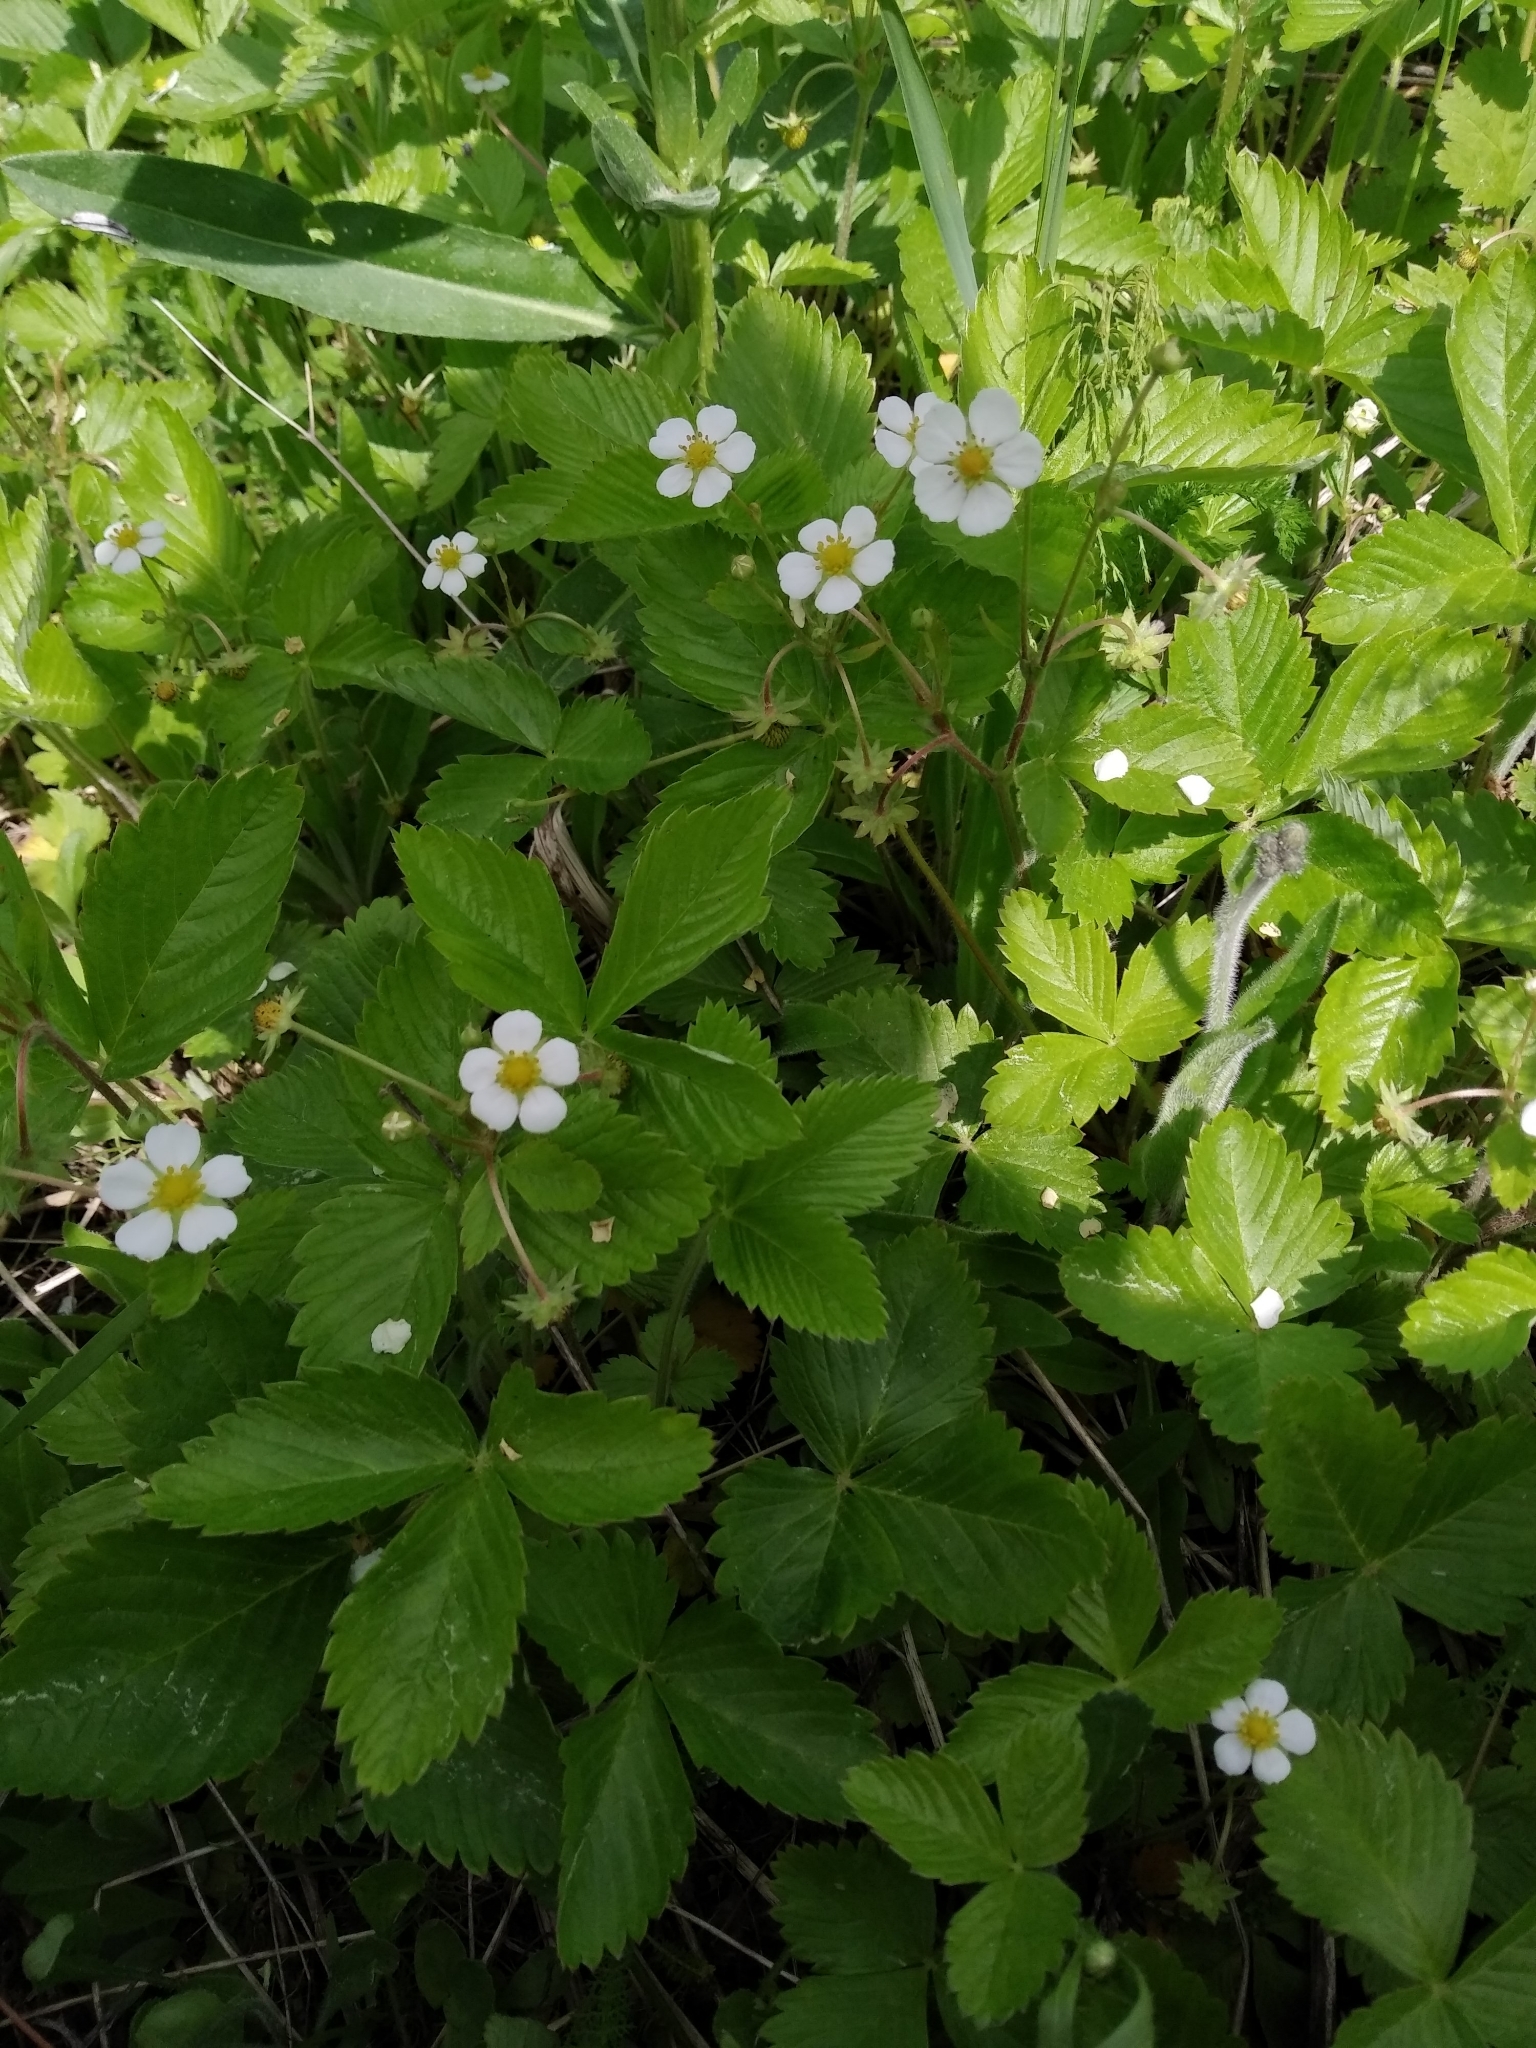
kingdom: Plantae
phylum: Tracheophyta
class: Magnoliopsida
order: Rosales
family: Rosaceae
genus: Fragaria
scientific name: Fragaria vesca
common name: Wild strawberry
